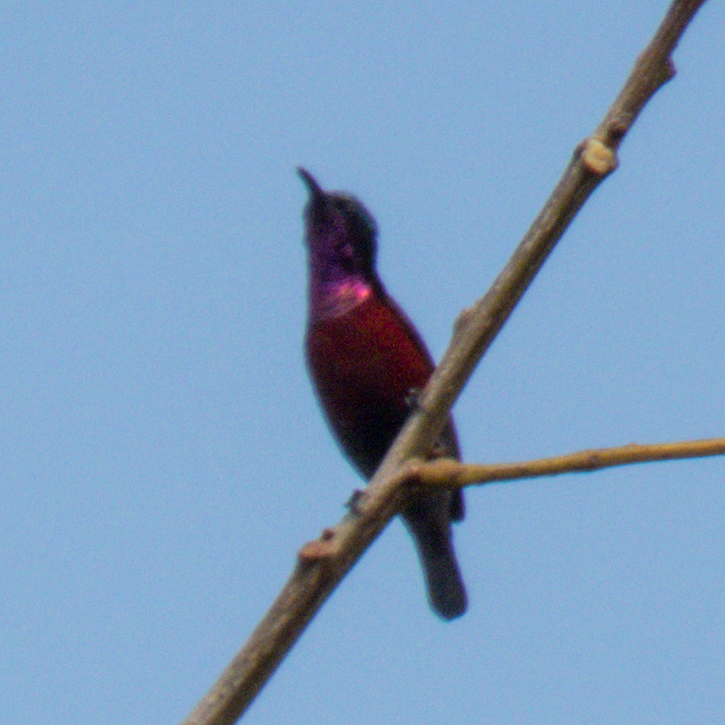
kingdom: Animalia
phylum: Chordata
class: Aves
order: Passeriformes
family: Nectariniidae
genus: Leptocoma
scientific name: Leptocoma brasiliana
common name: Van hasselt's sunbird
